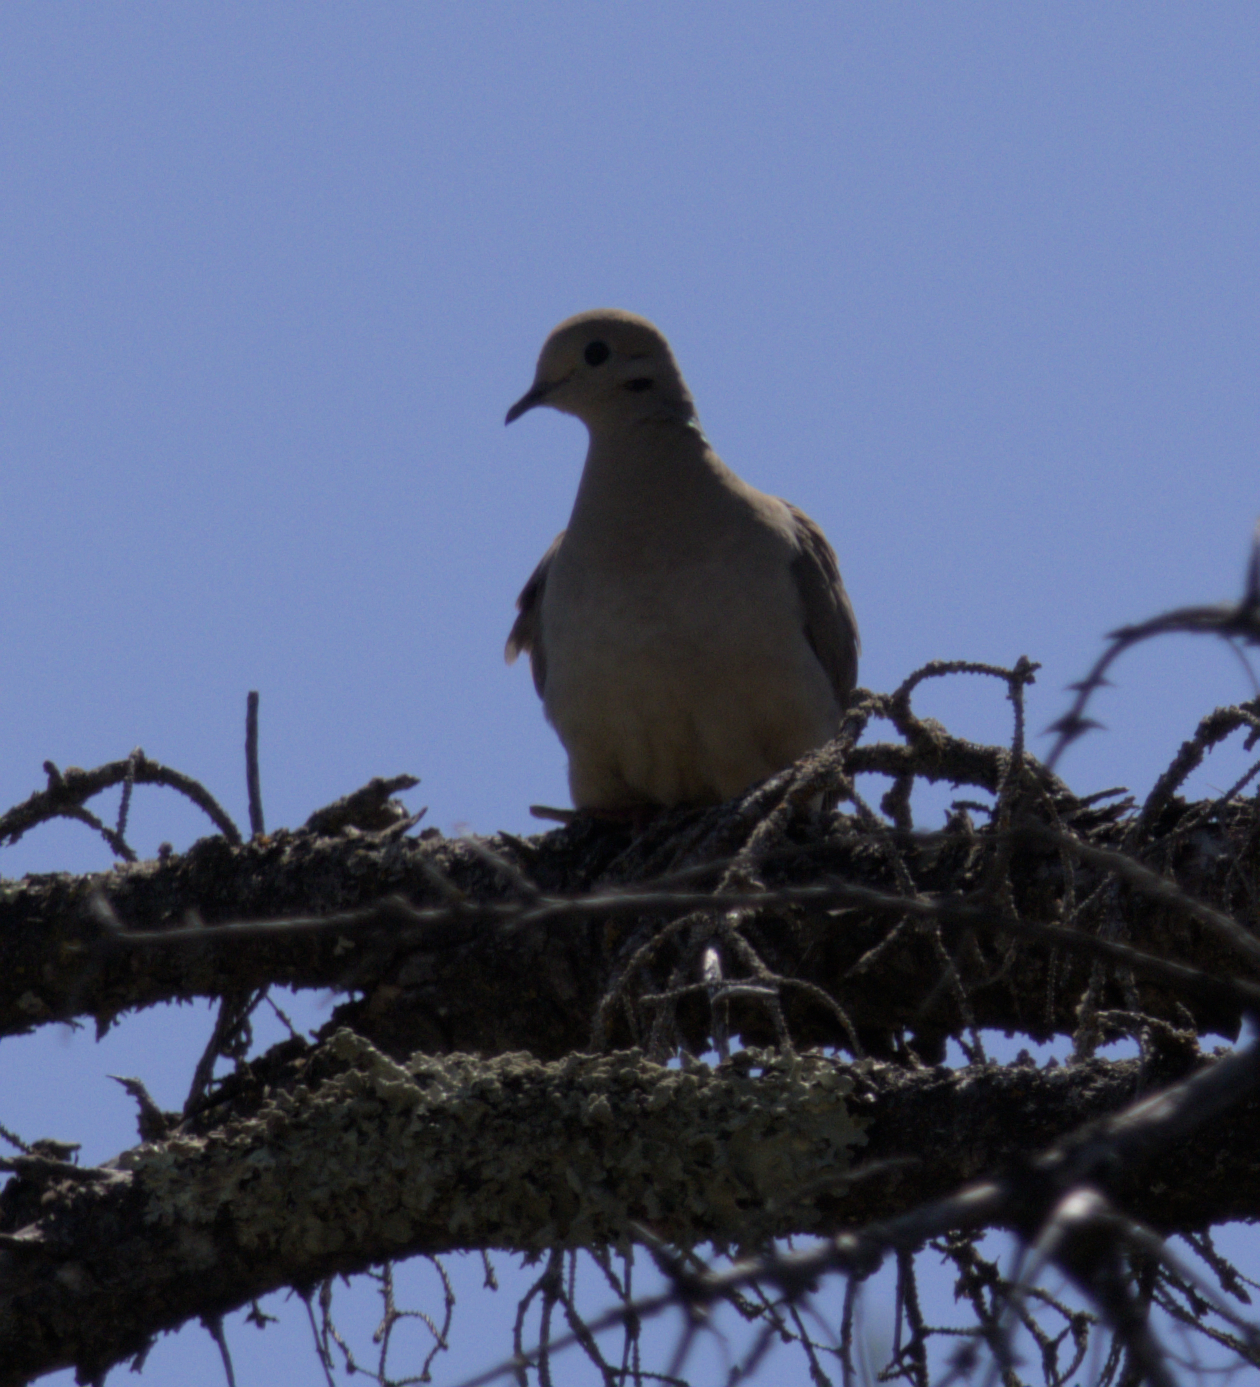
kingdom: Animalia
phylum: Chordata
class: Aves
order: Columbiformes
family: Columbidae
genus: Zenaida
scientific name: Zenaida macroura
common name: Mourning dove
